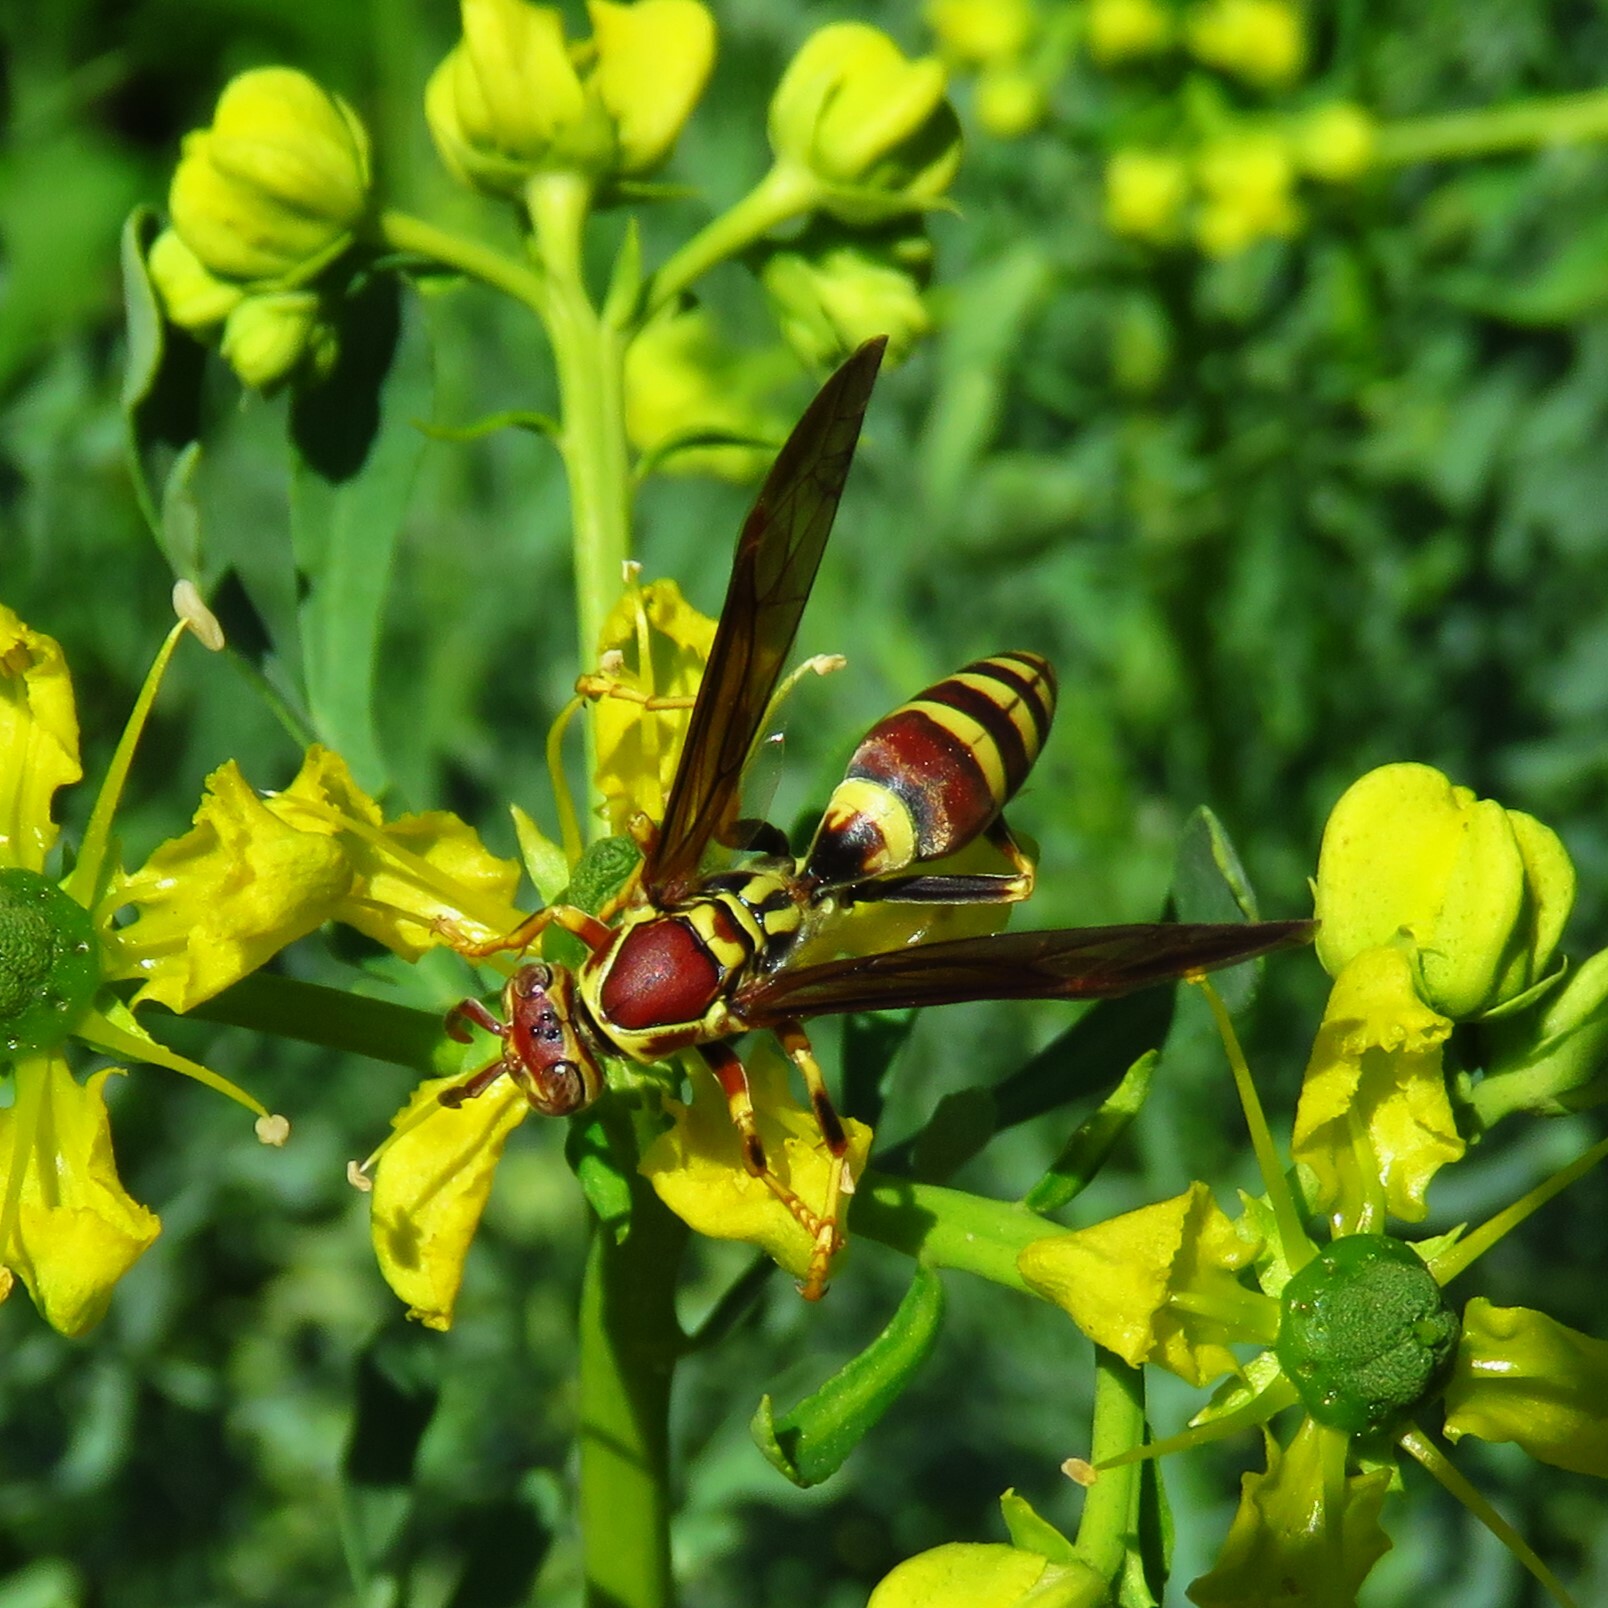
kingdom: Animalia
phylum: Arthropoda
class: Insecta
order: Hymenoptera
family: Eumenidae
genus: Polistes
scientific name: Polistes exclamans
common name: Paper wasp
